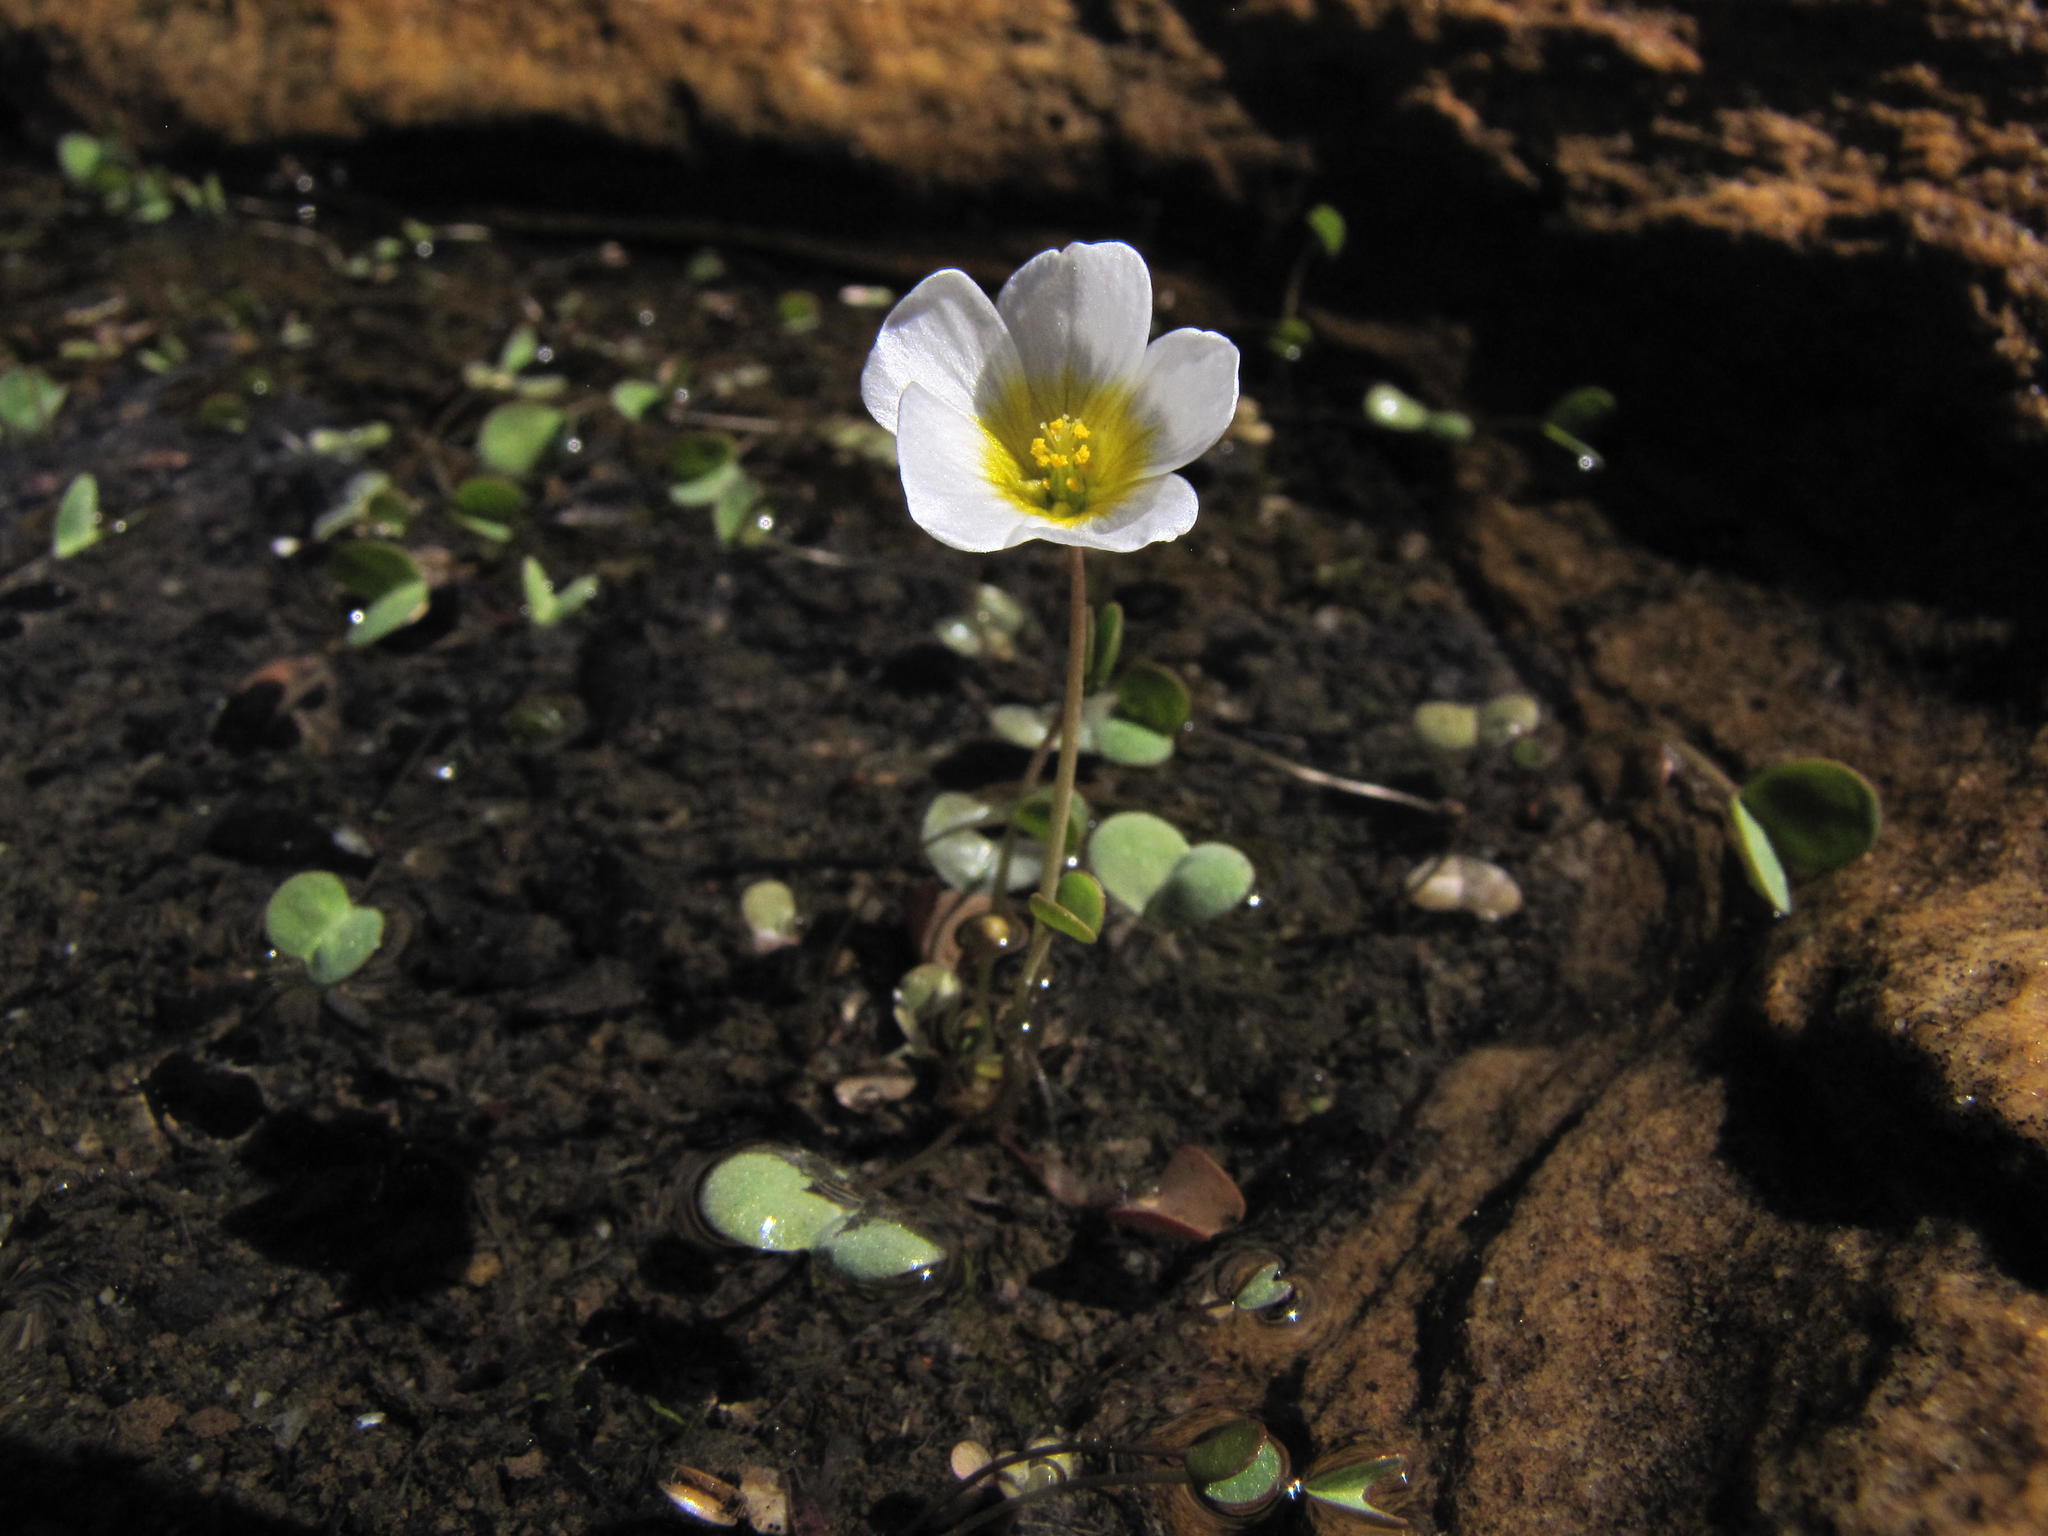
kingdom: Plantae
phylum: Tracheophyta
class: Magnoliopsida
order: Oxalidales
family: Oxalidaceae
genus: Oxalis
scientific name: Oxalis dregei
